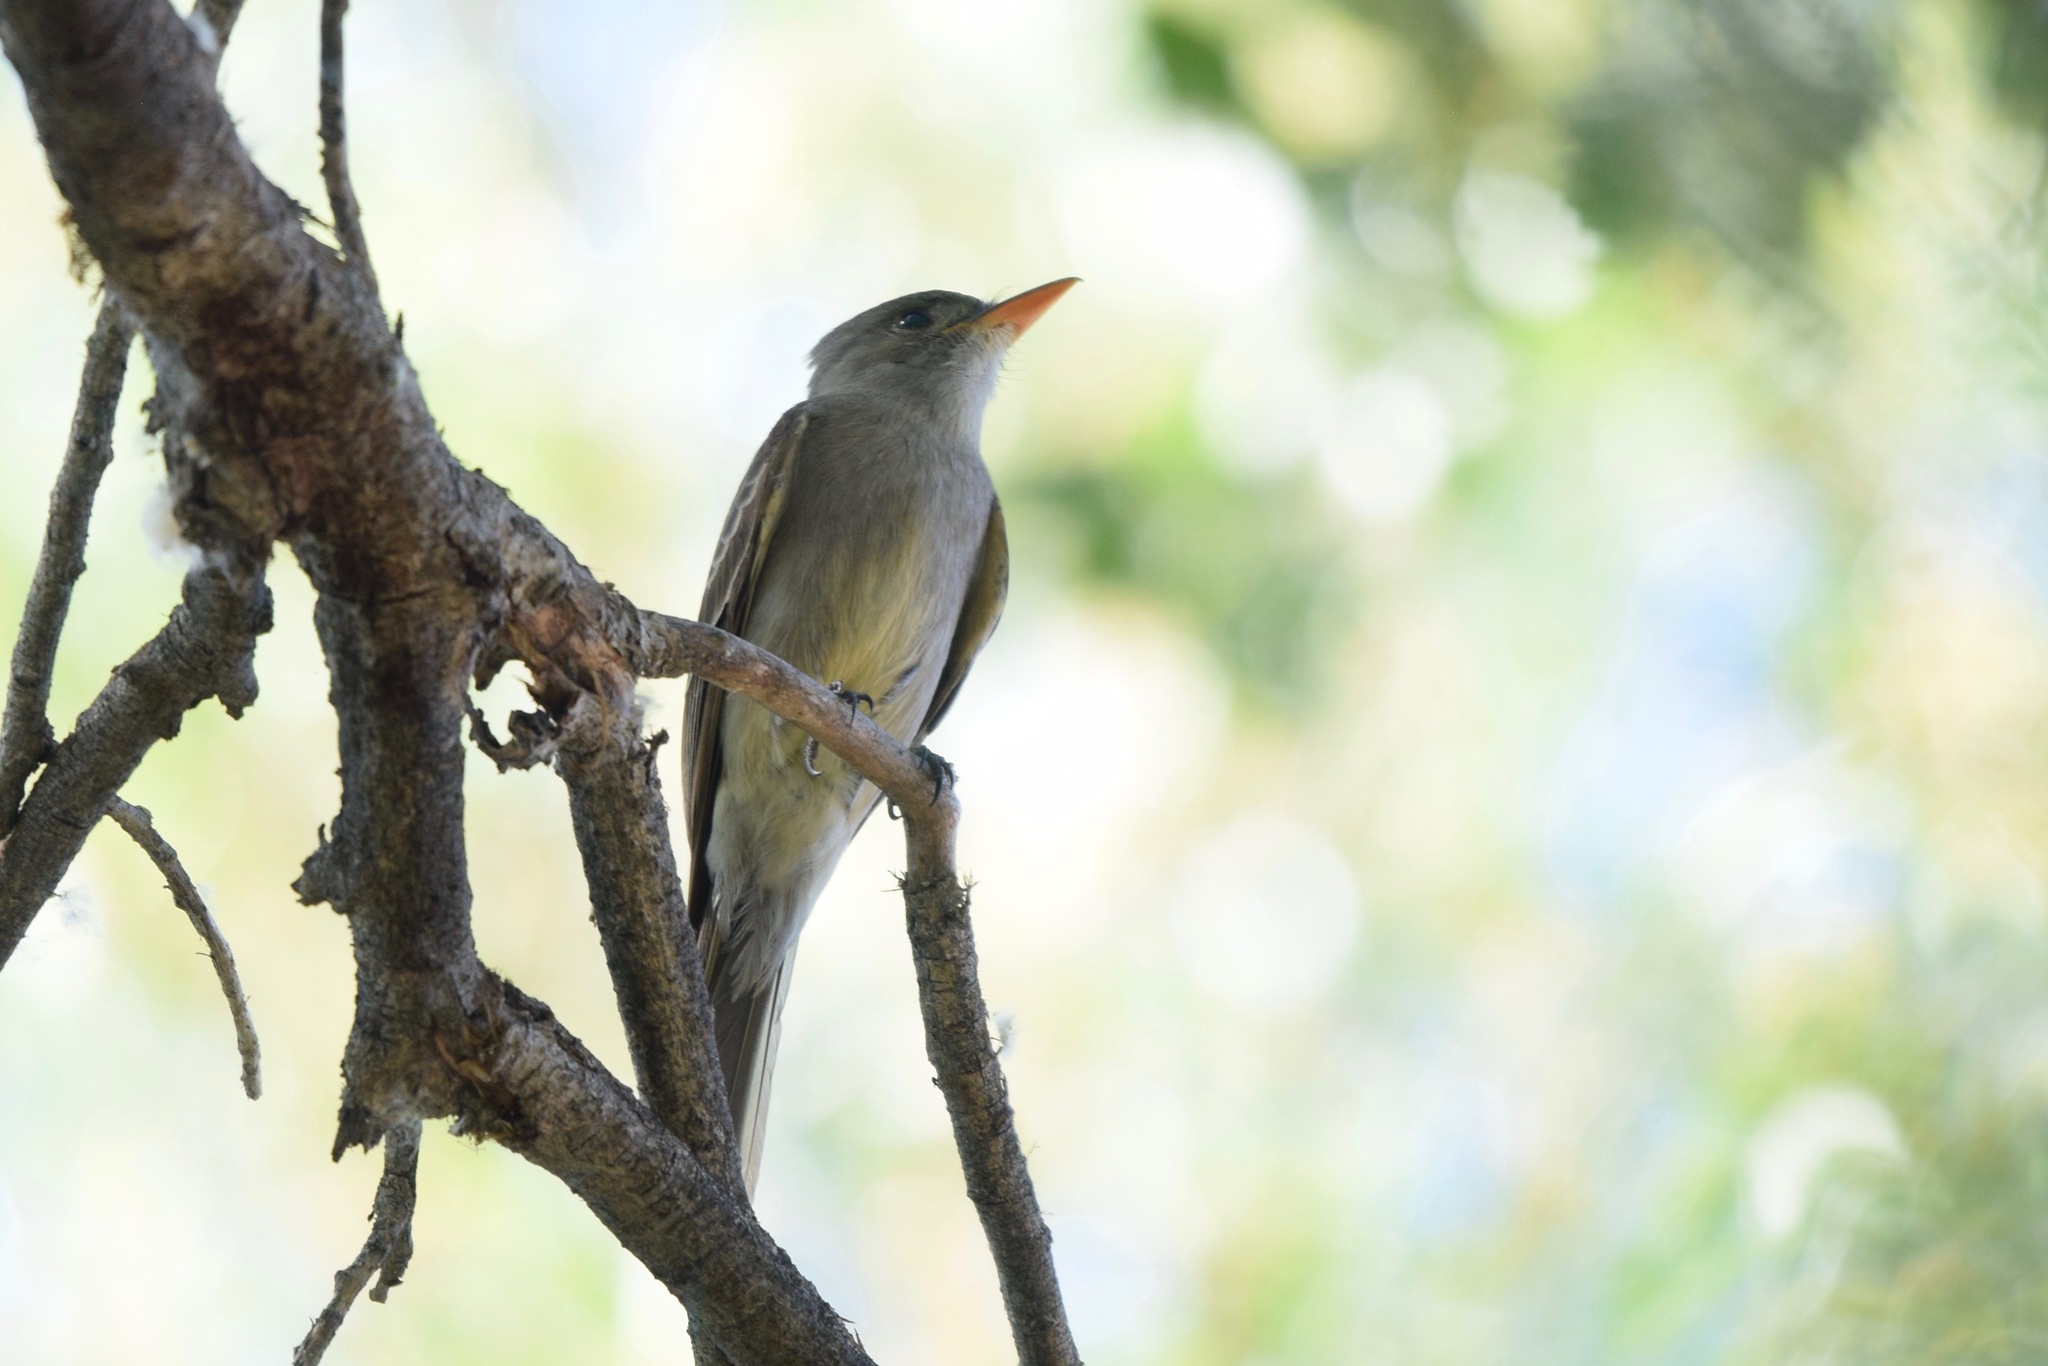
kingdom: Animalia
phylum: Chordata
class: Aves
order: Passeriformes
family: Tyrannidae
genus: Contopus
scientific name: Contopus pertinax
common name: Greater pewee
